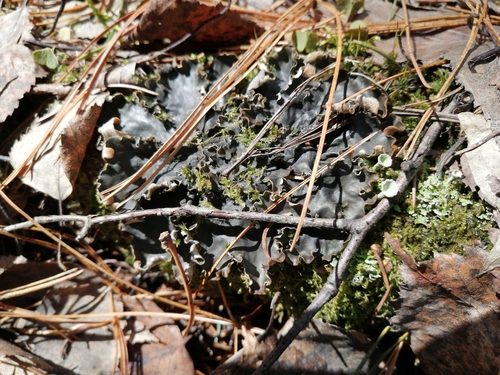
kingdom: Fungi
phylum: Ascomycota
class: Lecanoromycetes
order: Peltigerales
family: Peltigeraceae
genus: Peltigera
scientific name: Peltigera polydactylon
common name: Many-fruited pelt lichen
